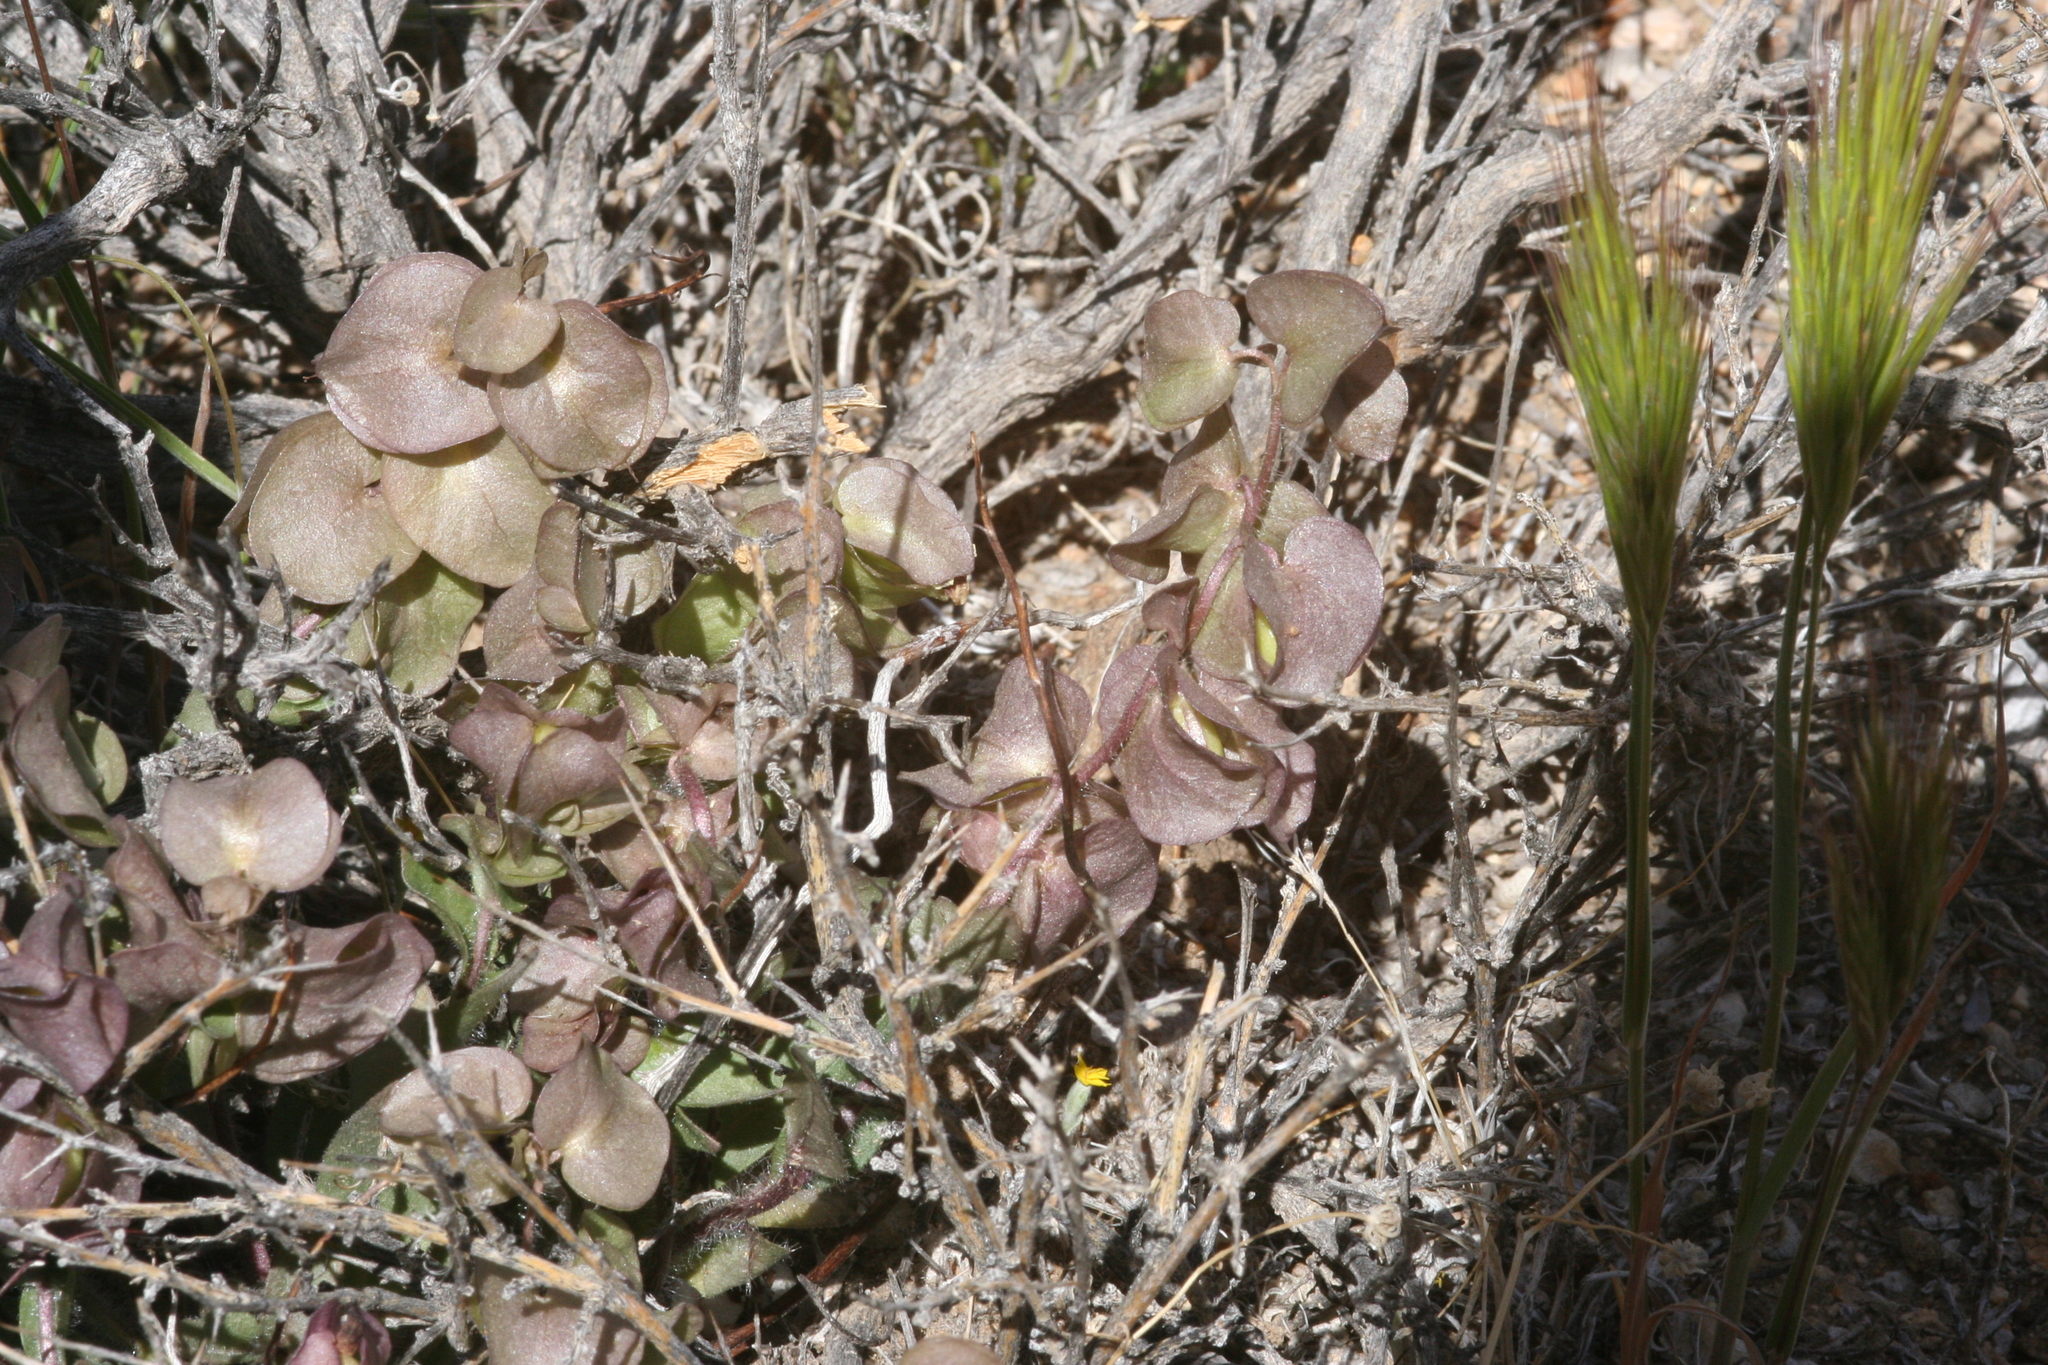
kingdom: Plantae
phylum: Tracheophyta
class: Magnoliopsida
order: Boraginales
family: Hydrophyllaceae
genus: Tricardia
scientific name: Tricardia watsonii
